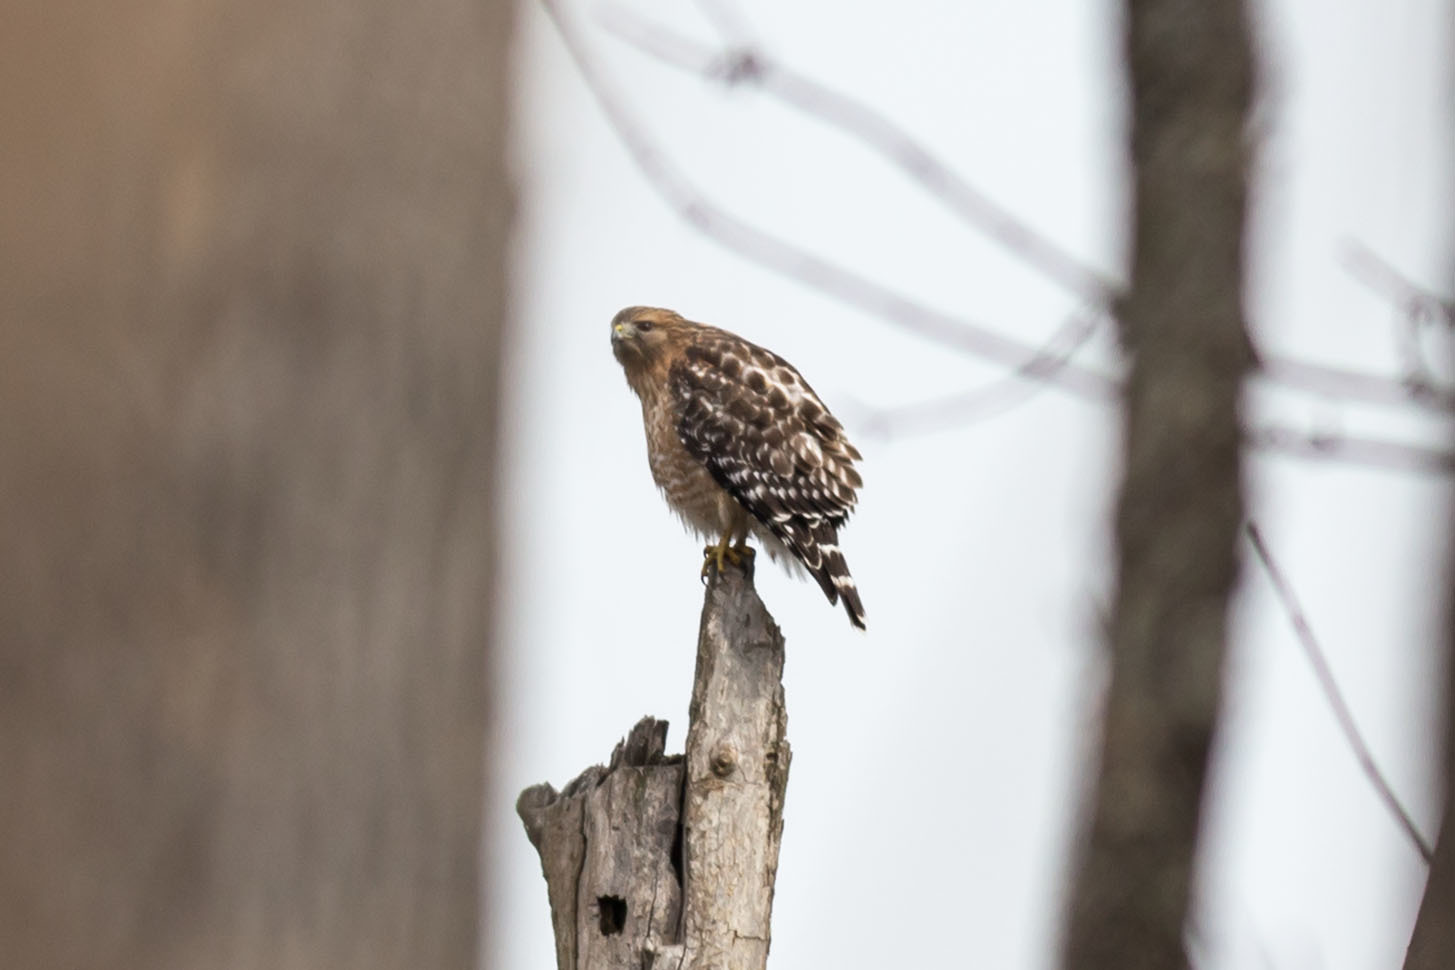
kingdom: Animalia
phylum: Chordata
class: Aves
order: Accipitriformes
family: Accipitridae
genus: Buteo
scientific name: Buteo lineatus
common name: Red-shouldered hawk
